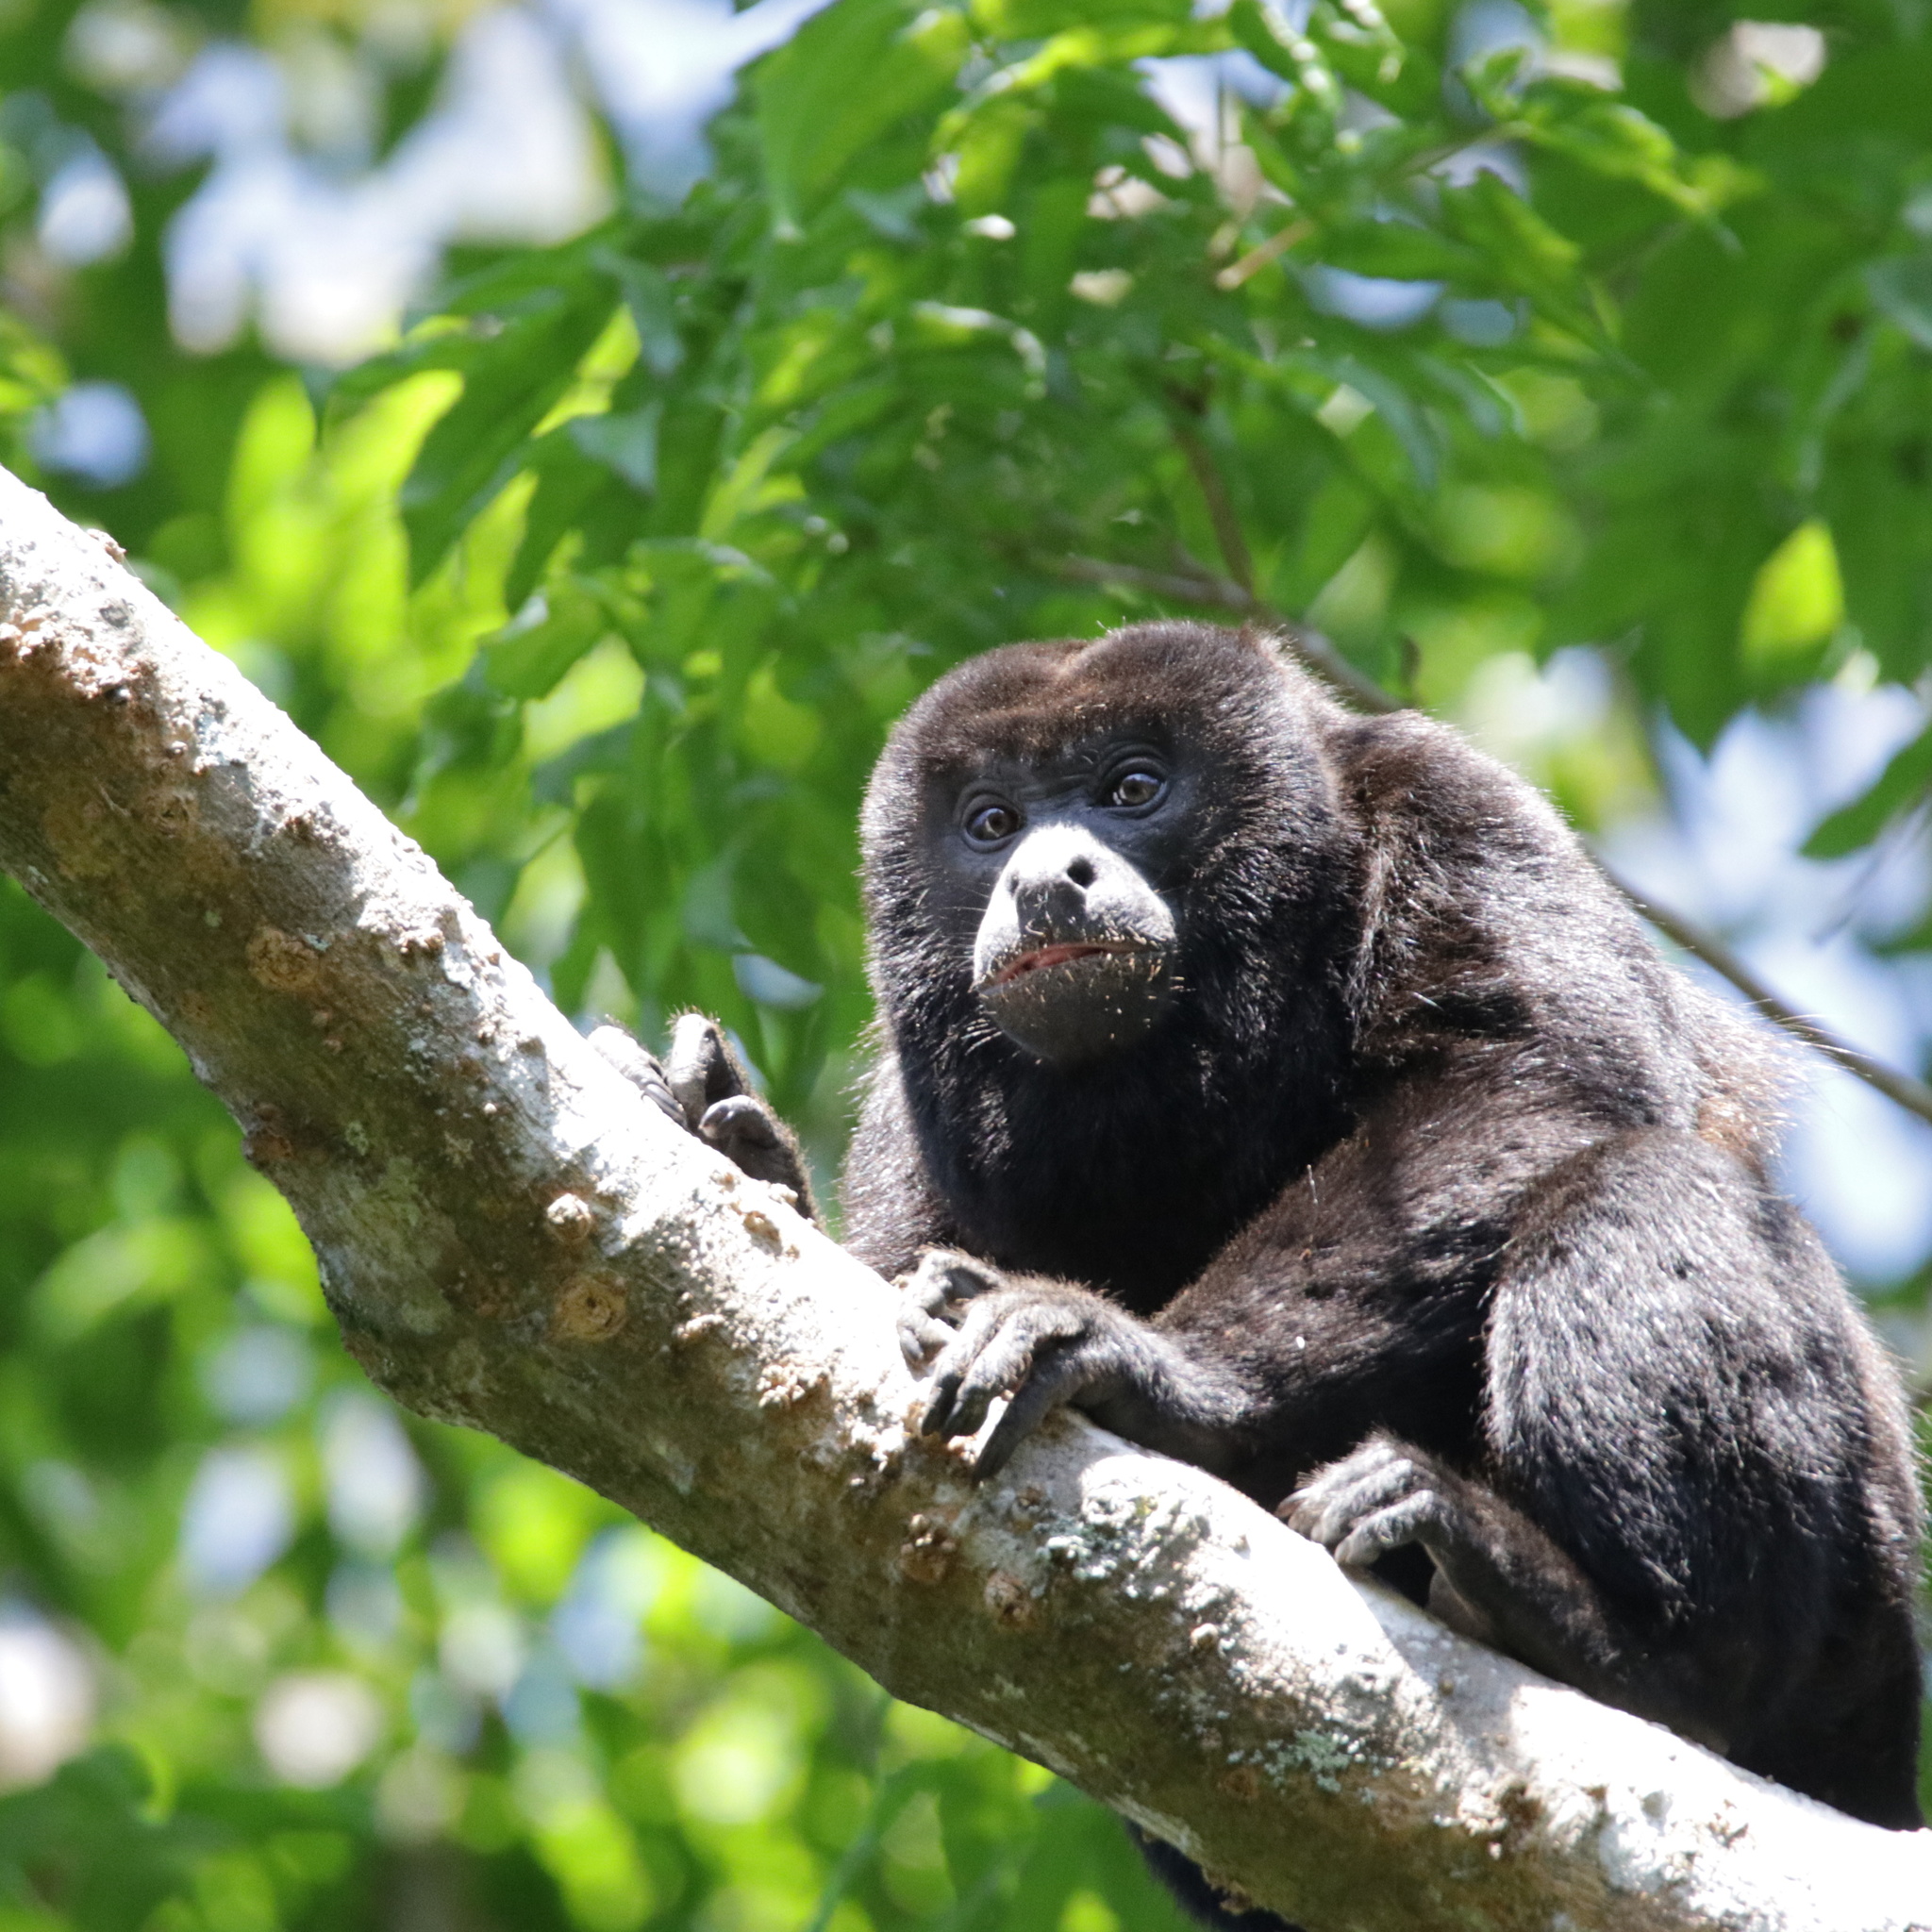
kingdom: Animalia
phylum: Chordata
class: Mammalia
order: Primates
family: Atelidae
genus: Alouatta
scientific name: Alouatta palliata
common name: Mantled howler
